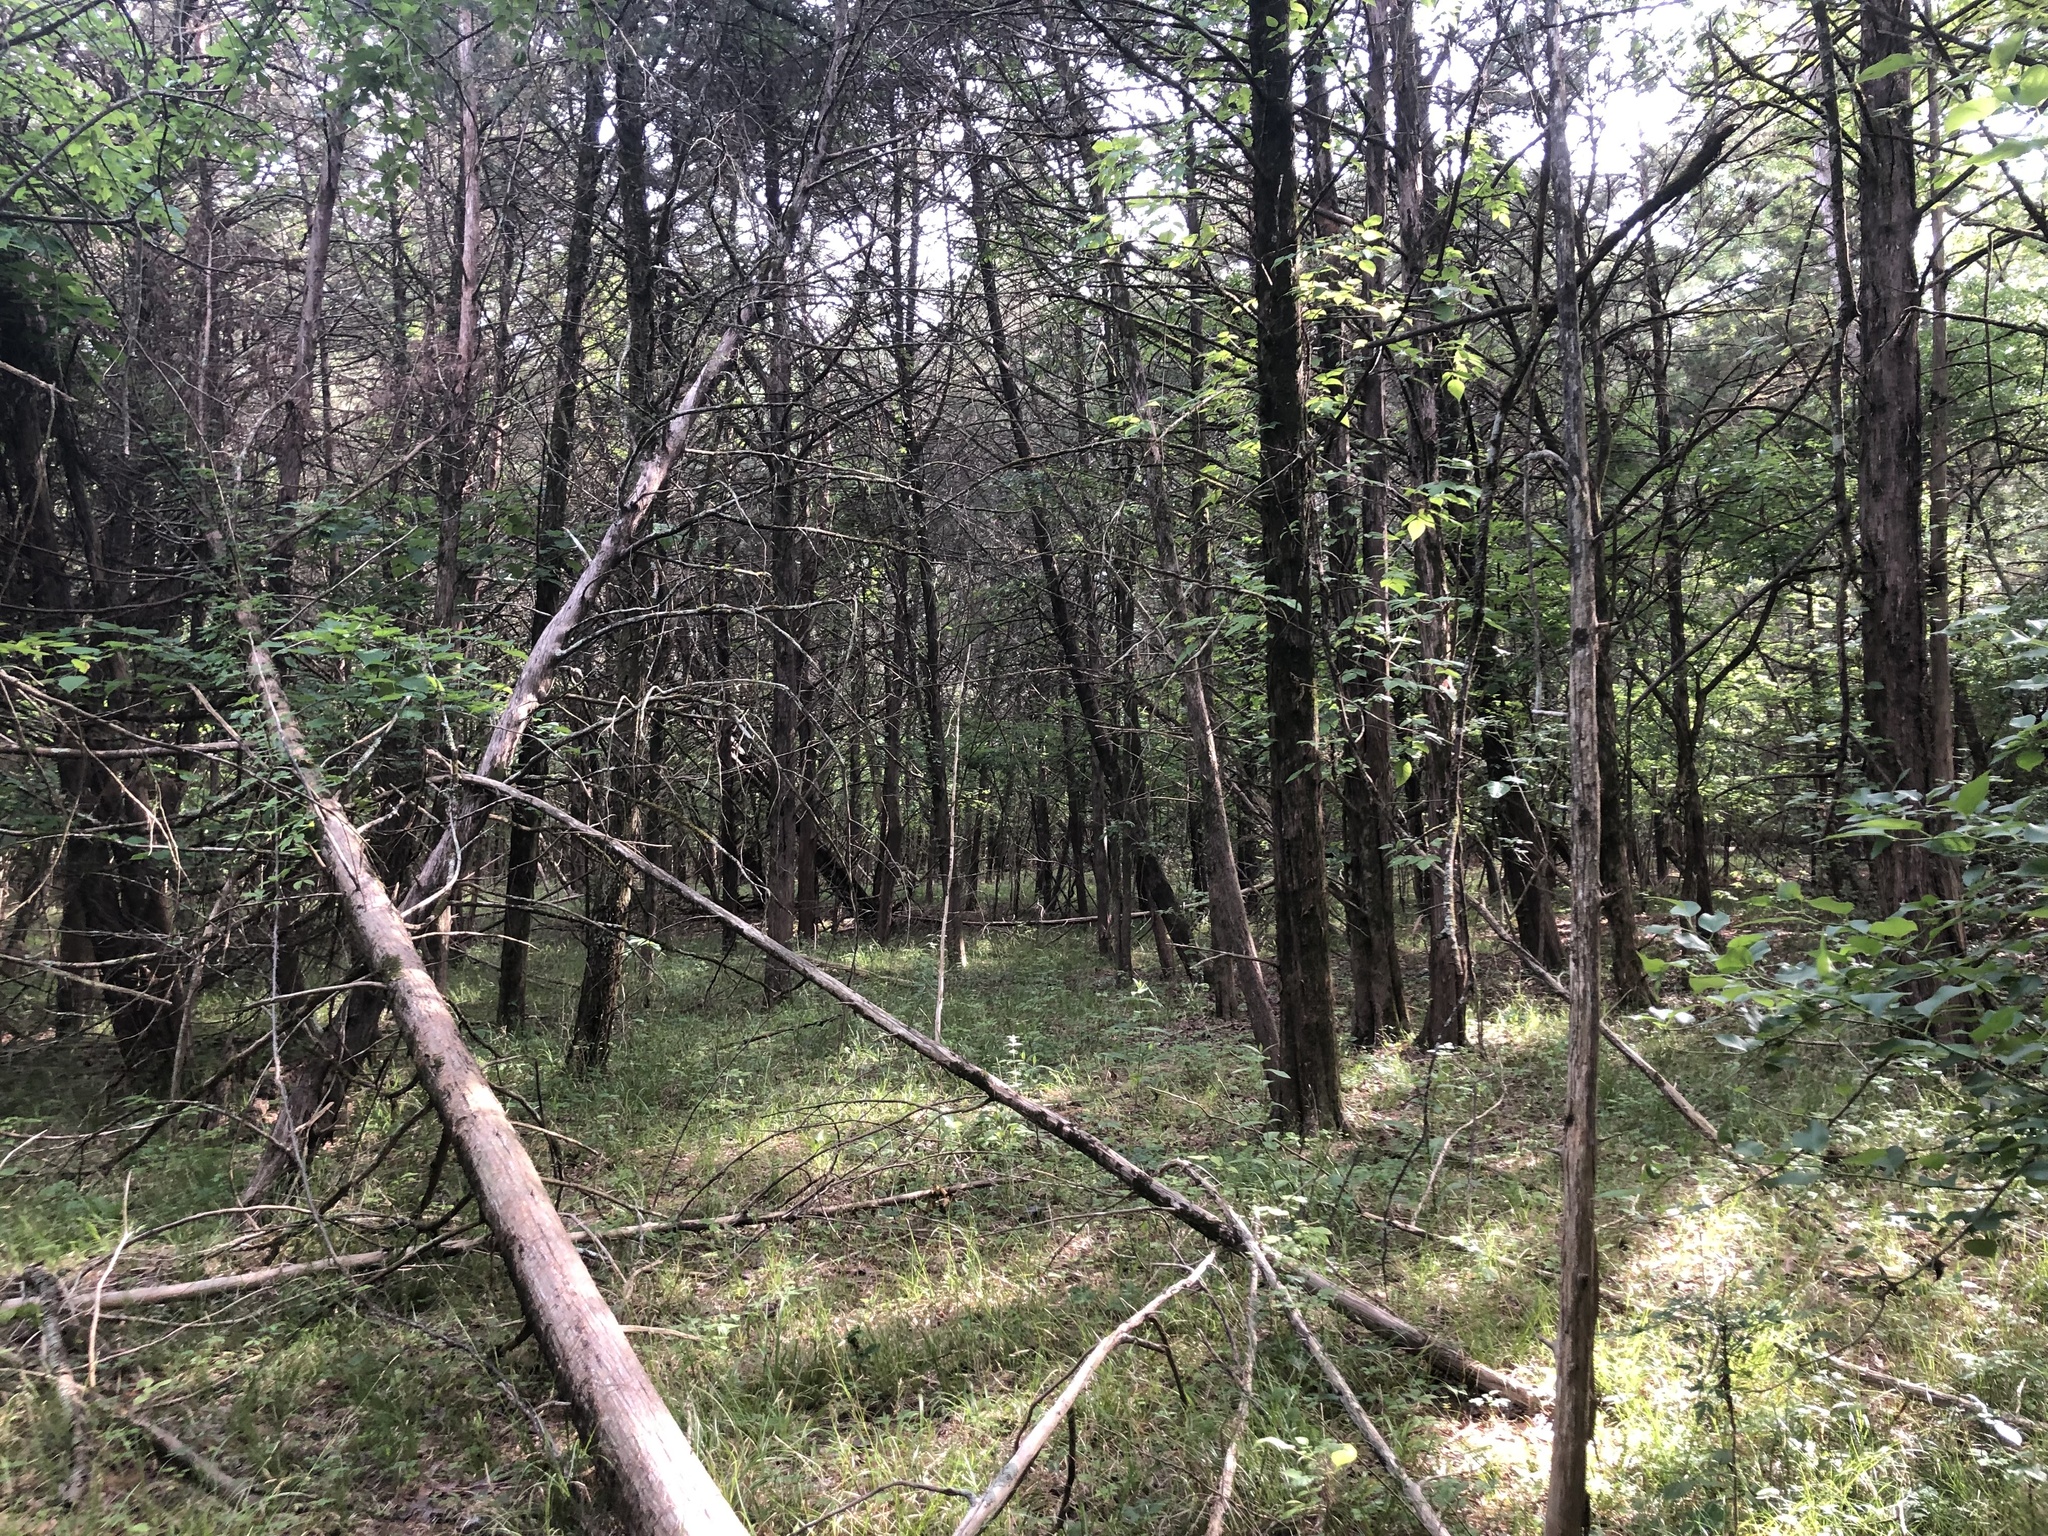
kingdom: Plantae
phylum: Tracheophyta
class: Pinopsida
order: Pinales
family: Cupressaceae
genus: Juniperus
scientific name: Juniperus virginiana
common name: Red juniper
